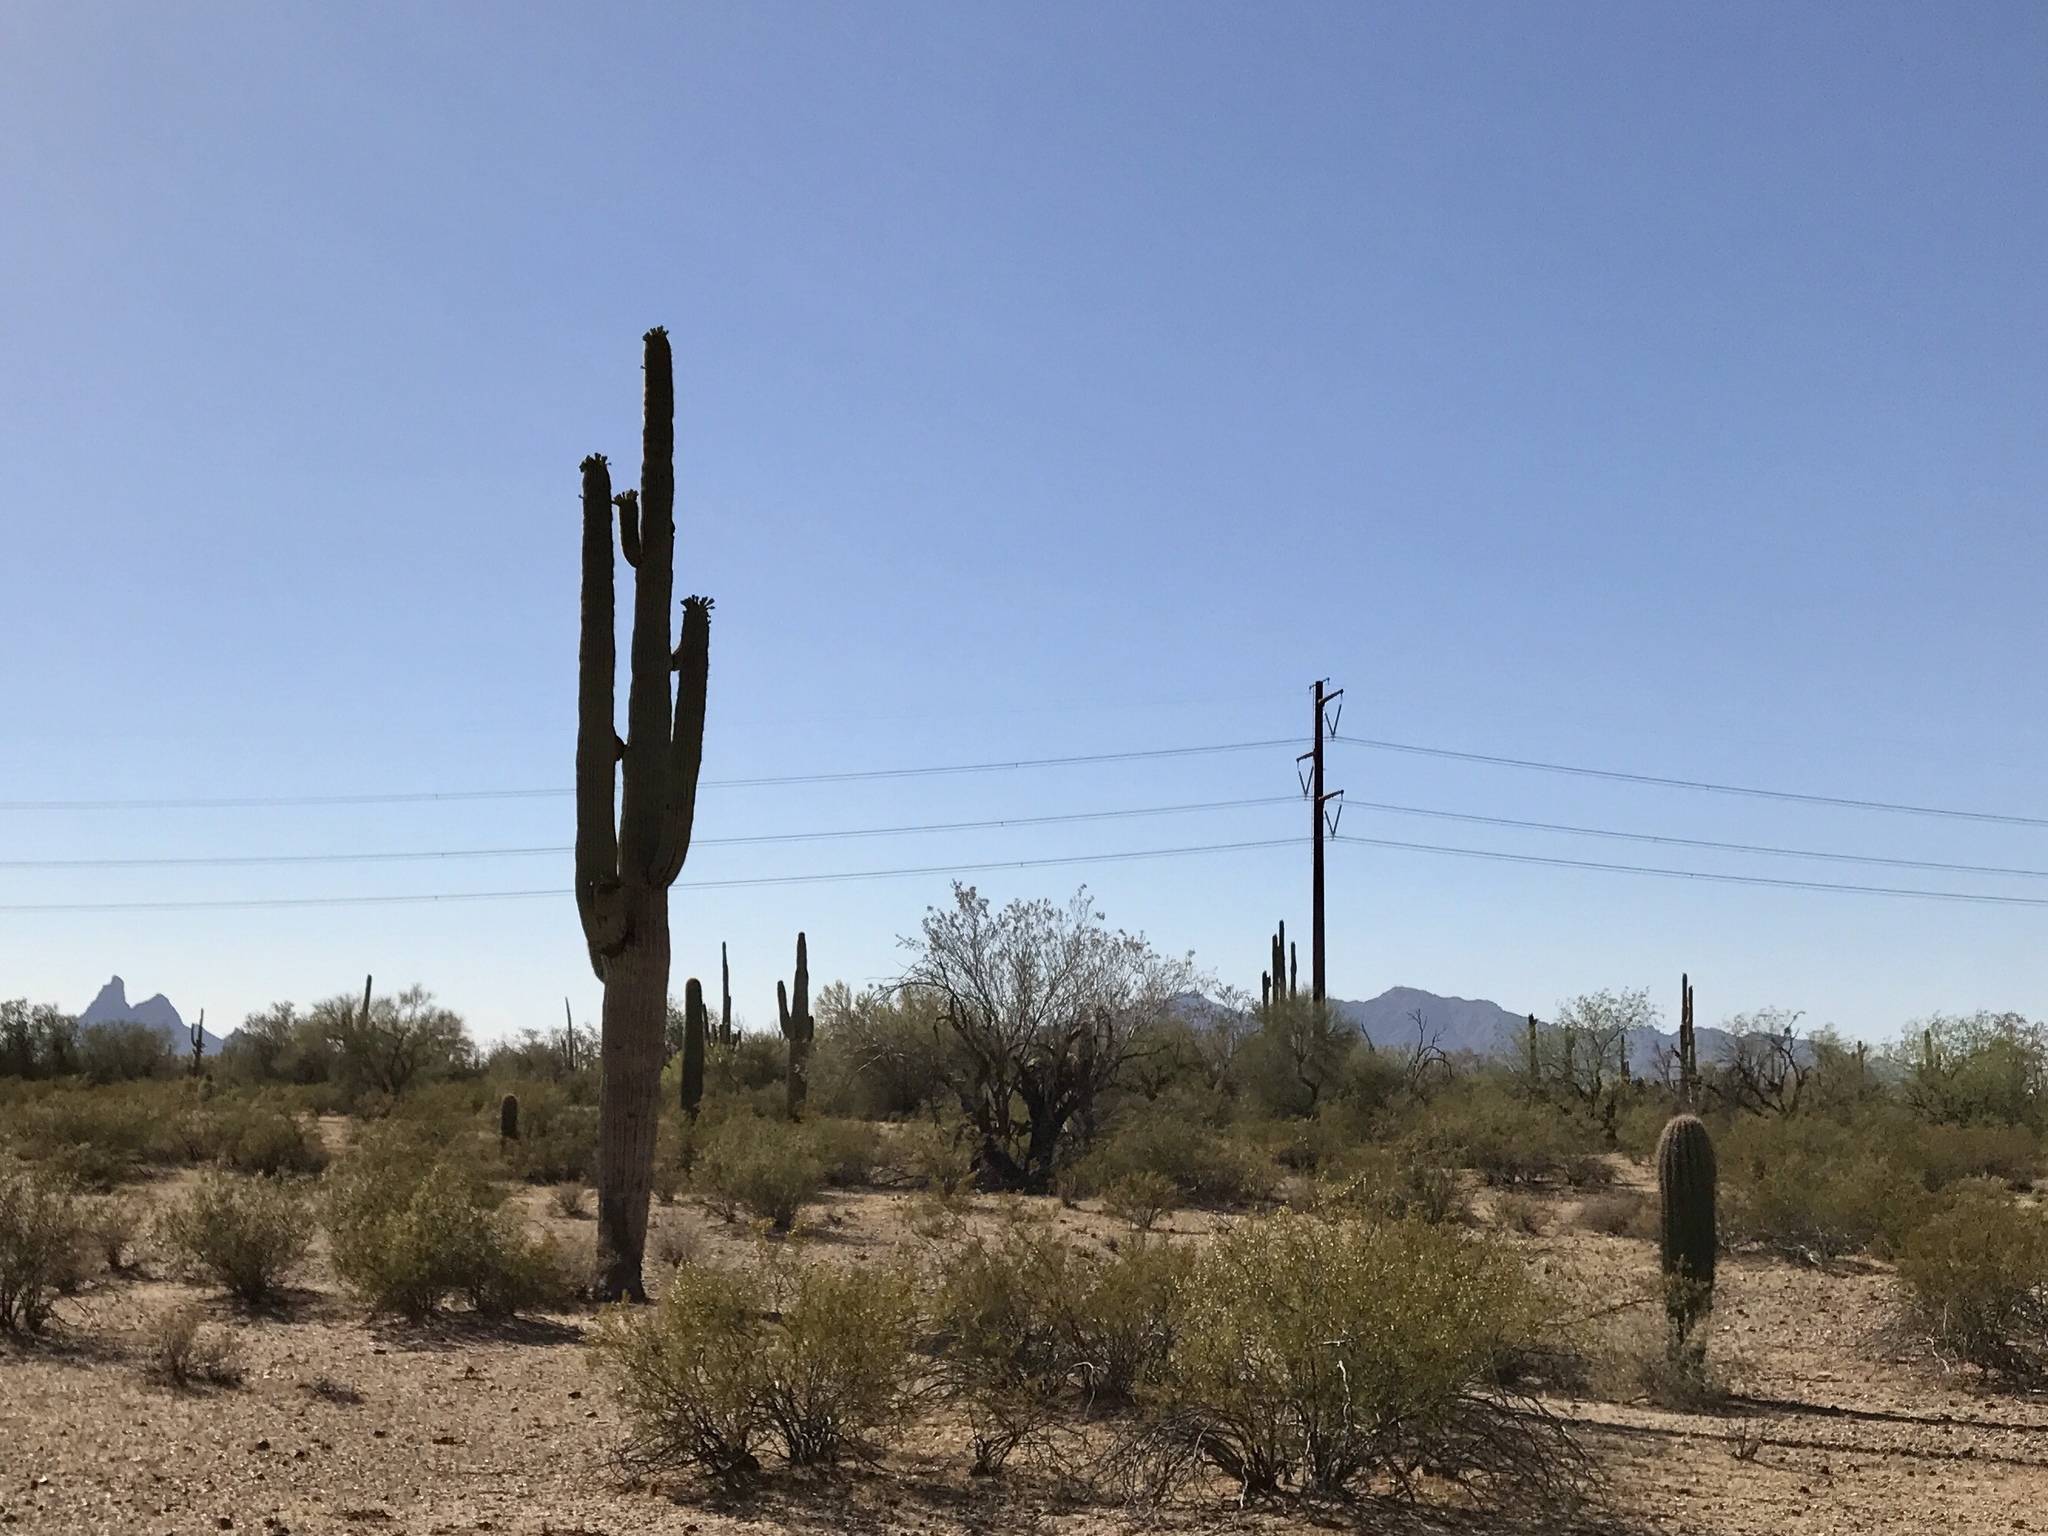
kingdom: Plantae
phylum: Tracheophyta
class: Magnoliopsida
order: Caryophyllales
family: Cactaceae
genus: Carnegiea
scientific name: Carnegiea gigantea
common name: Saguaro
